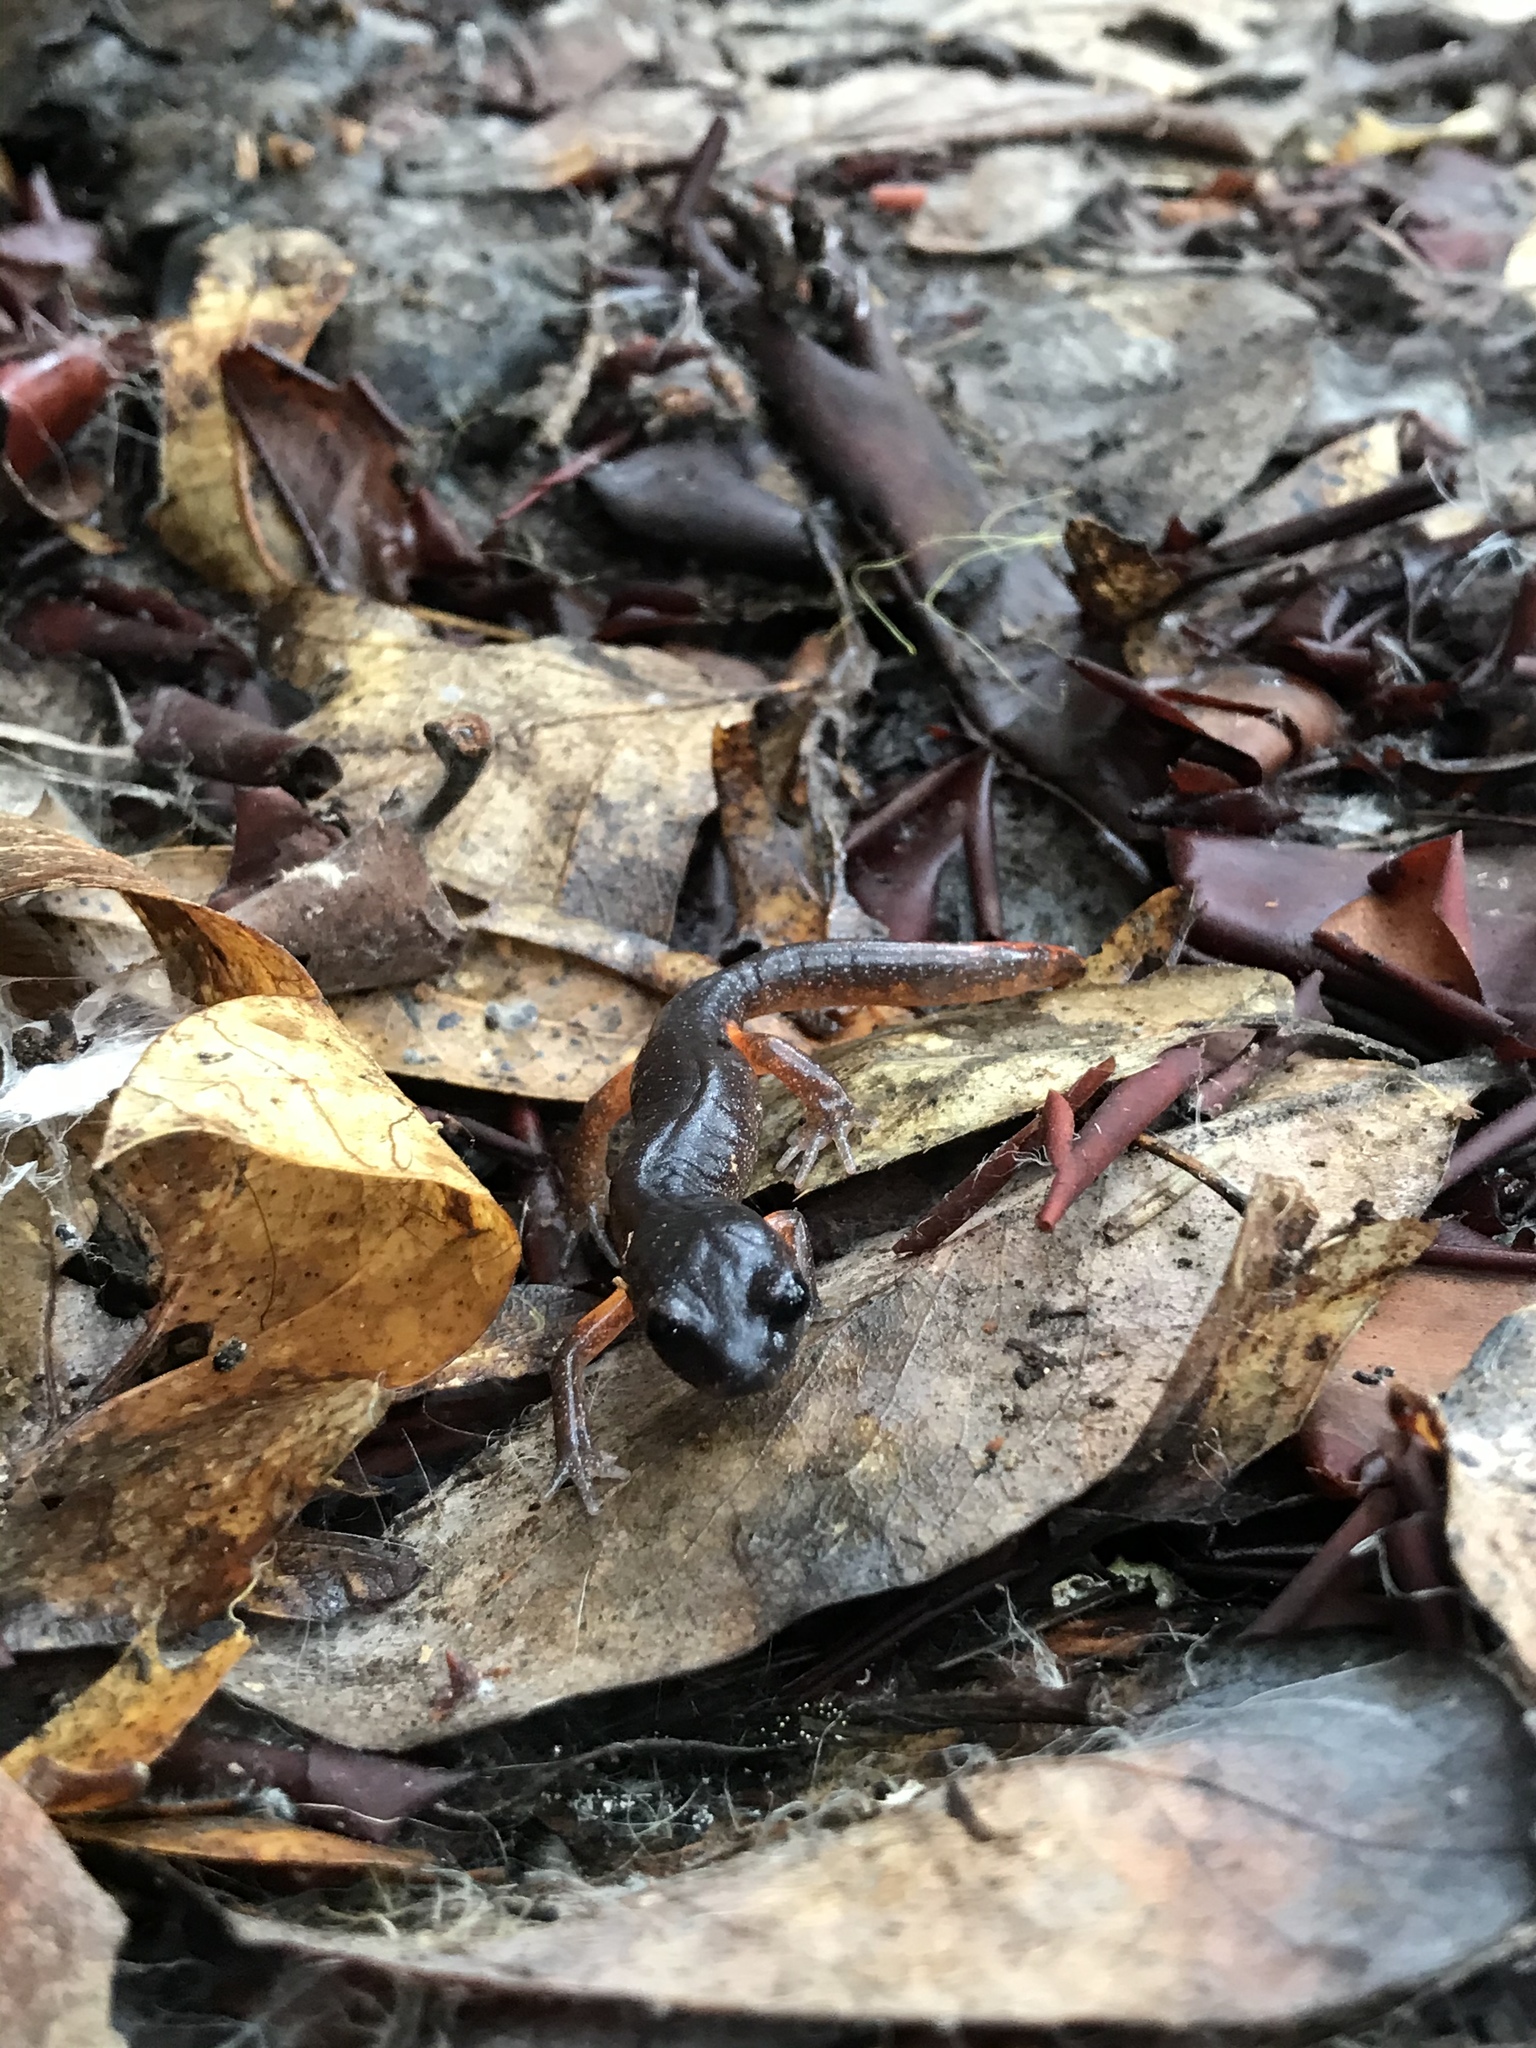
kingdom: Animalia
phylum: Chordata
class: Amphibia
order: Caudata
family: Plethodontidae
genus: Ensatina
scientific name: Ensatina eschscholtzii
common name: Ensatina
